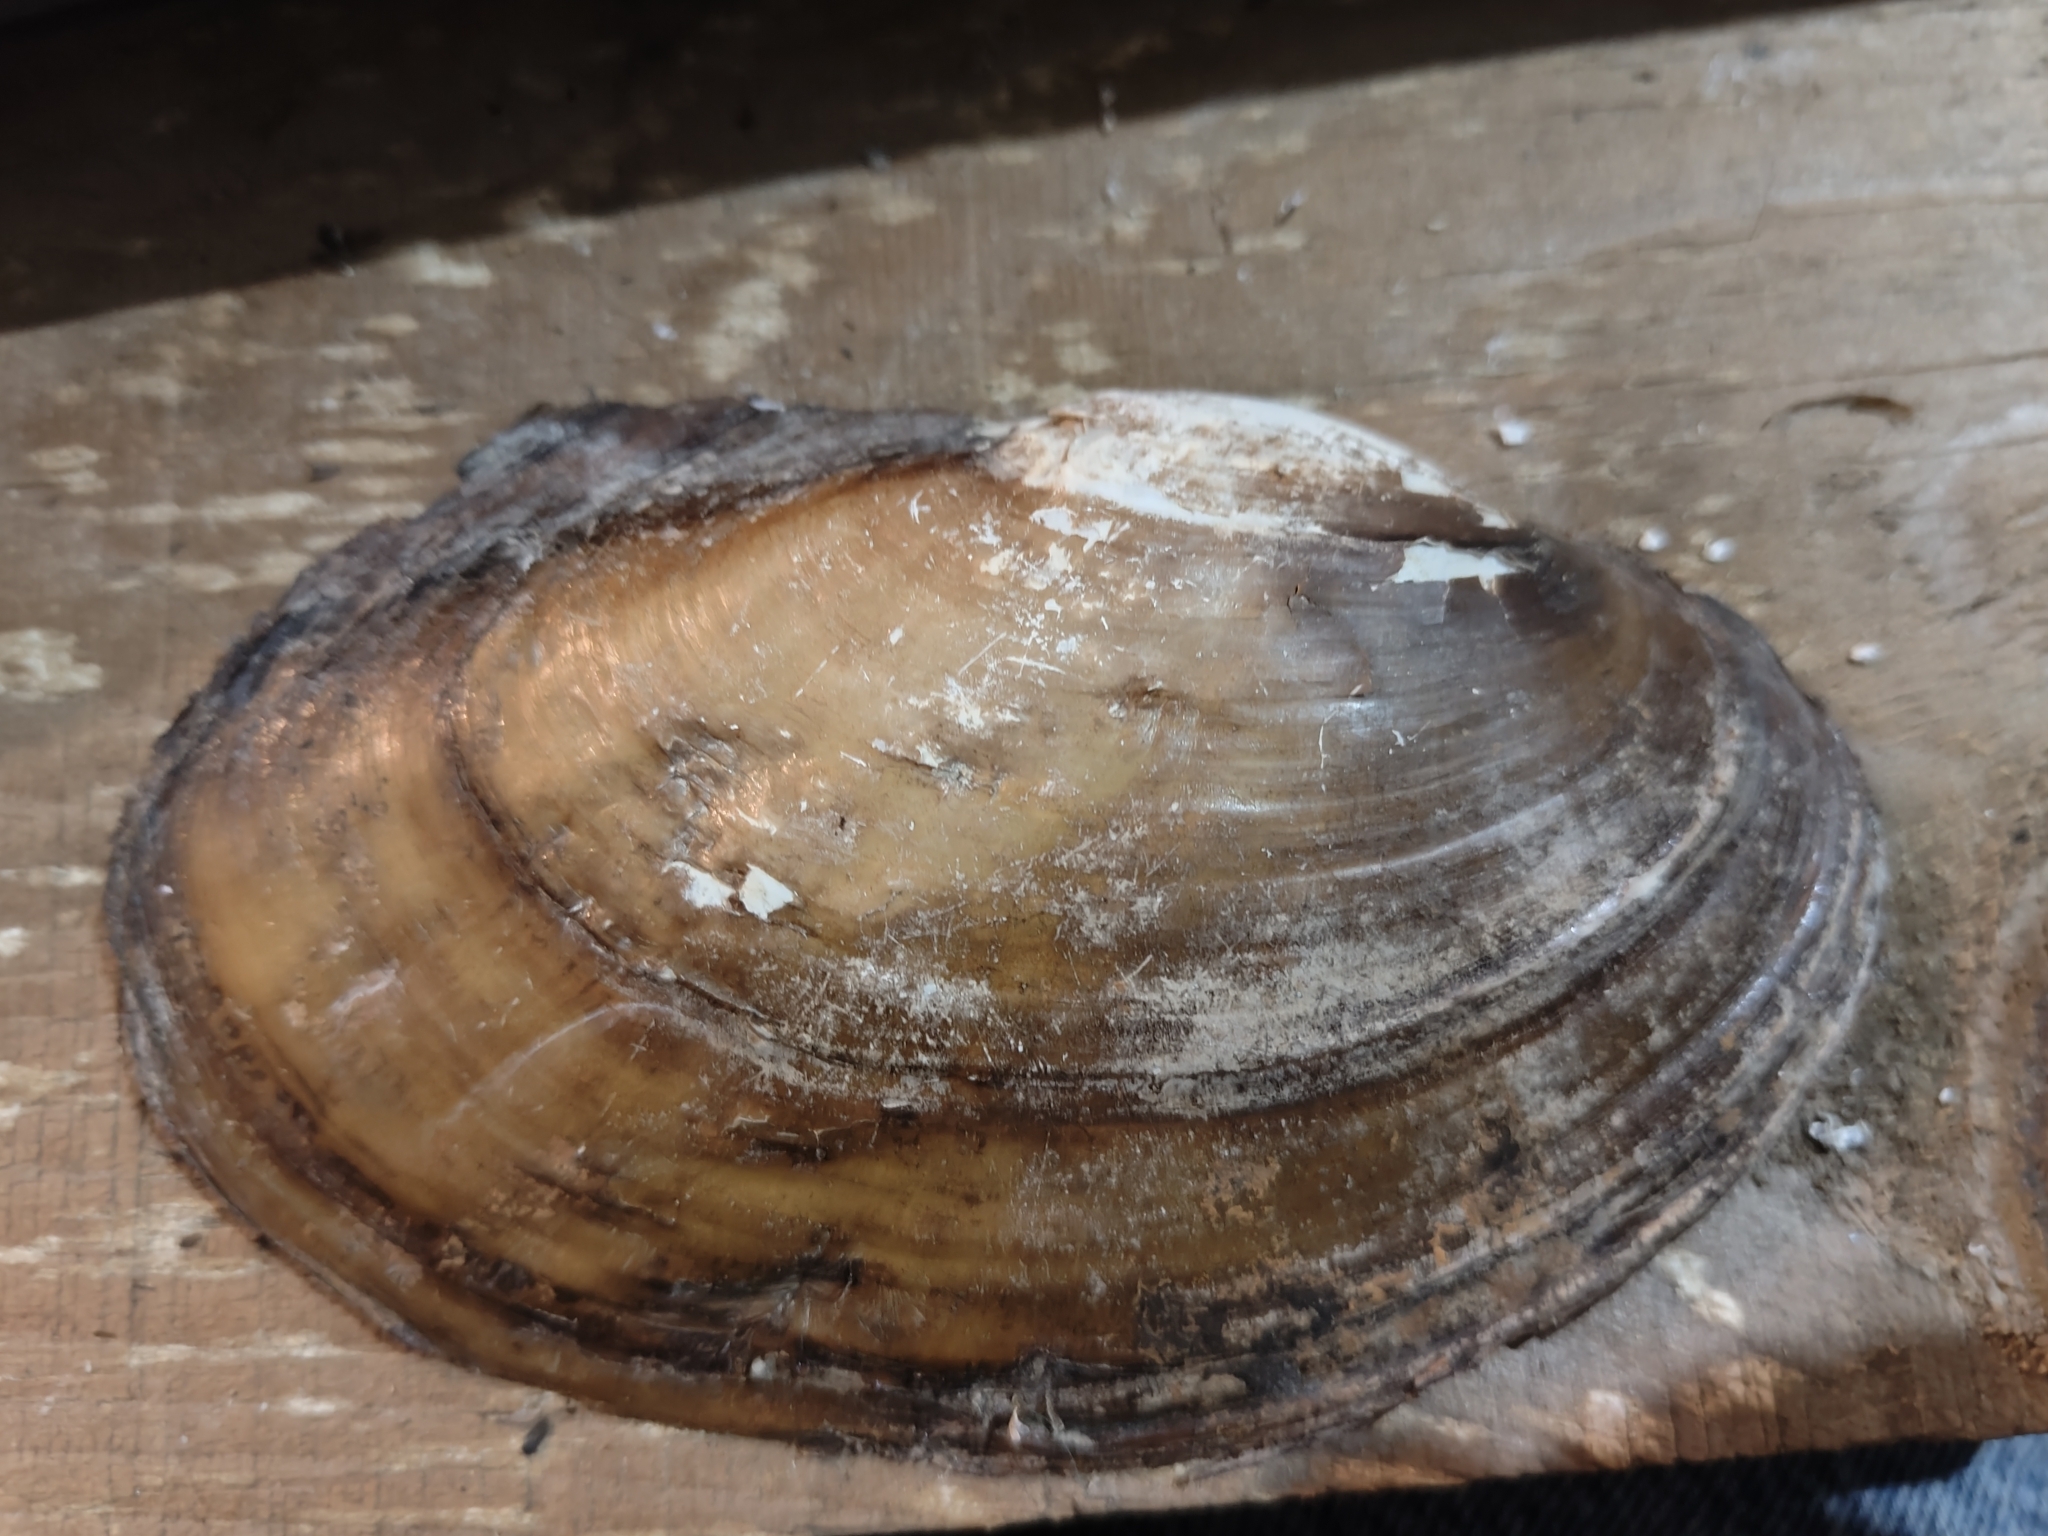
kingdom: Animalia
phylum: Mollusca
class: Bivalvia
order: Unionida
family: Unionidae
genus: Potamilus
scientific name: Potamilus fragilis
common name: Fragile papershell
